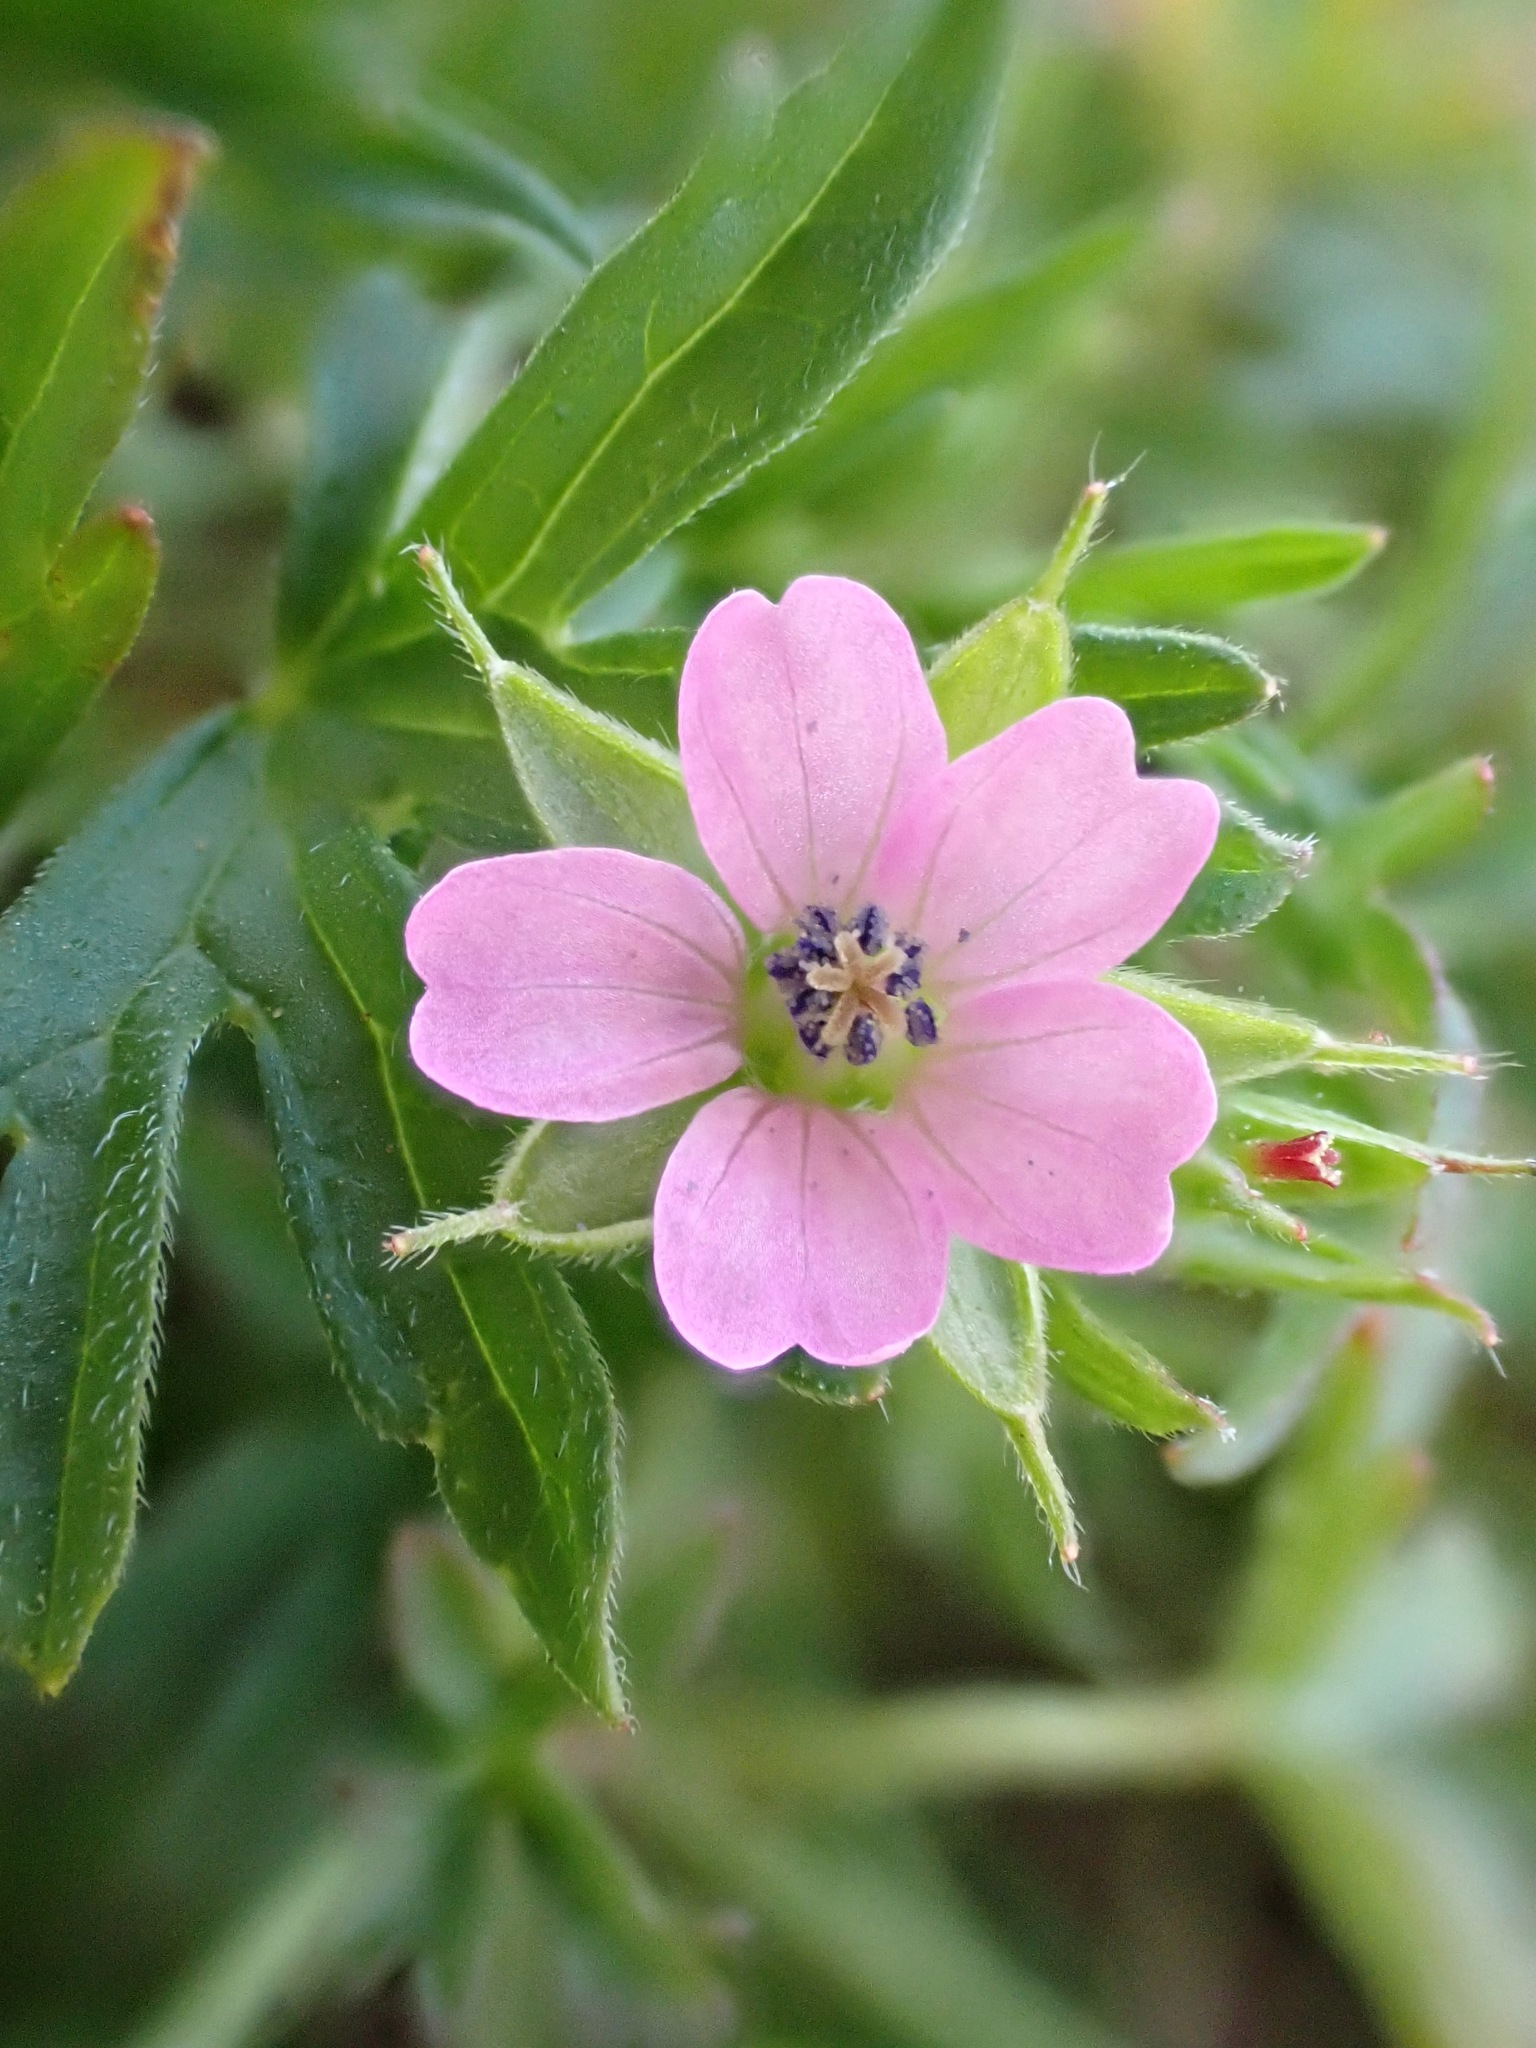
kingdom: Plantae
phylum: Tracheophyta
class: Magnoliopsida
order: Geraniales
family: Geraniaceae
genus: Geranium
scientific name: Geranium dissectum
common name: Cut-leaved crane's-bill
